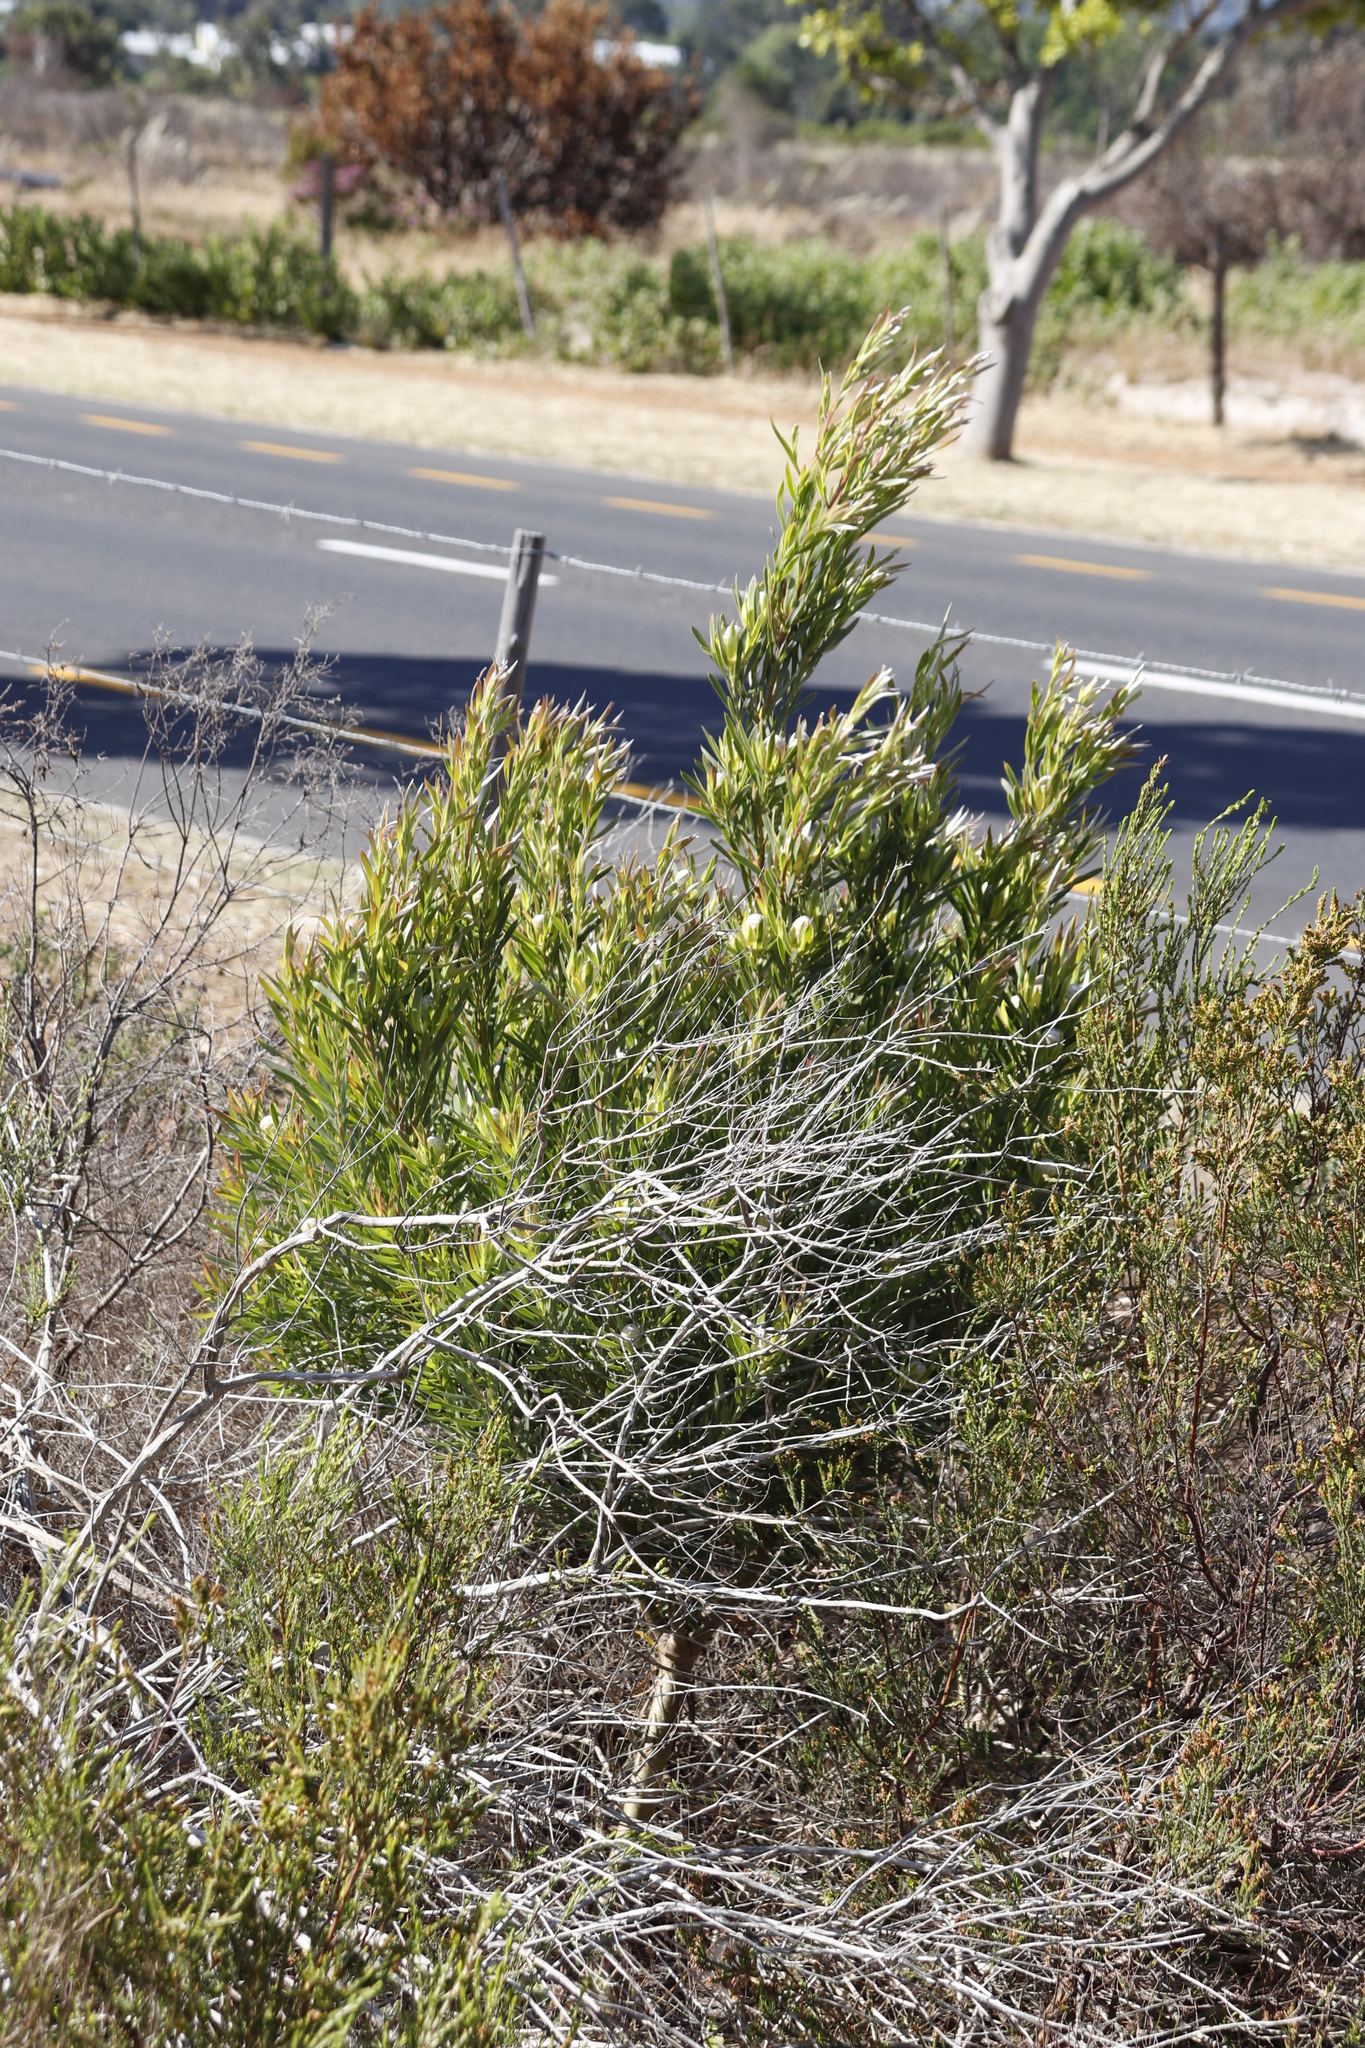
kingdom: Plantae
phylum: Tracheophyta
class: Magnoliopsida
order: Proteales
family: Proteaceae
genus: Leucadendron
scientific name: Leucadendron xanthoconus
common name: Sickle-leaf conebush
